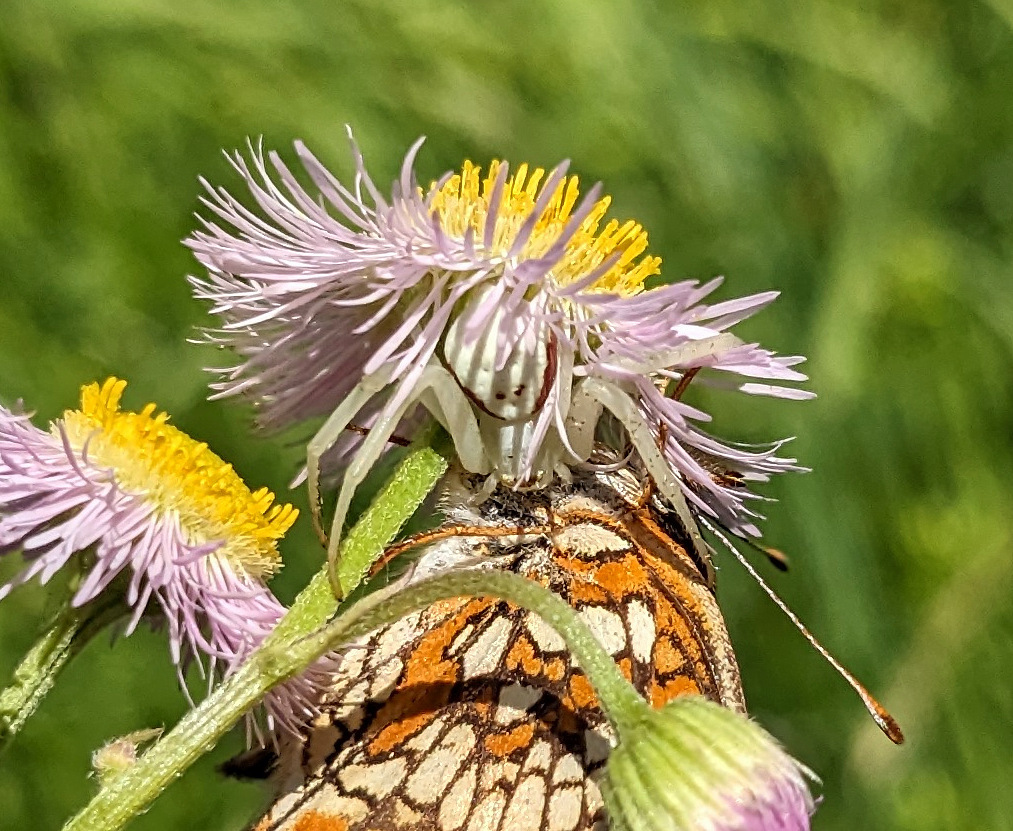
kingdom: Animalia
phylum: Arthropoda
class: Arachnida
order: Araneae
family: Thomisidae
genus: Misumena
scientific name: Misumena vatia
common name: Goldenrod crab spider
